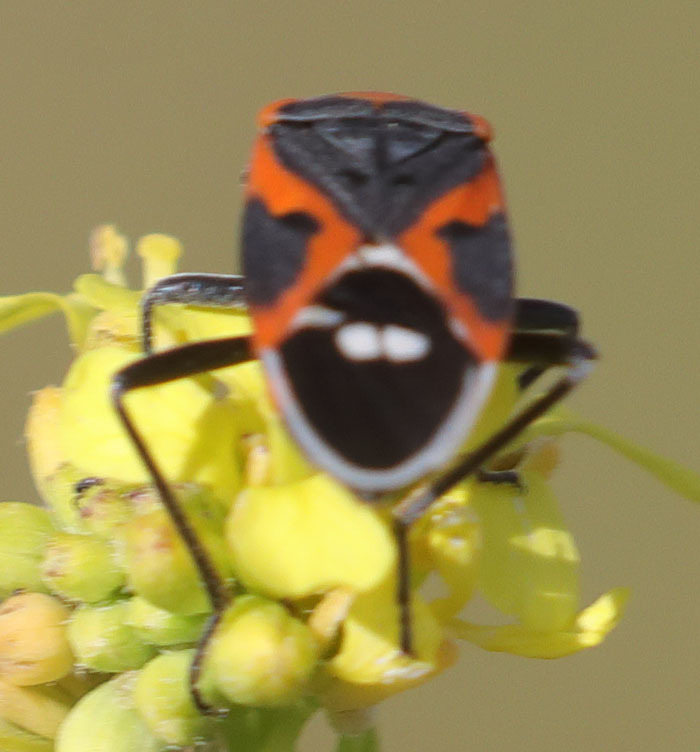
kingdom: Animalia
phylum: Arthropoda
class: Insecta
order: Hemiptera
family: Lygaeidae
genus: Lygaeus
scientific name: Lygaeus kalmii
